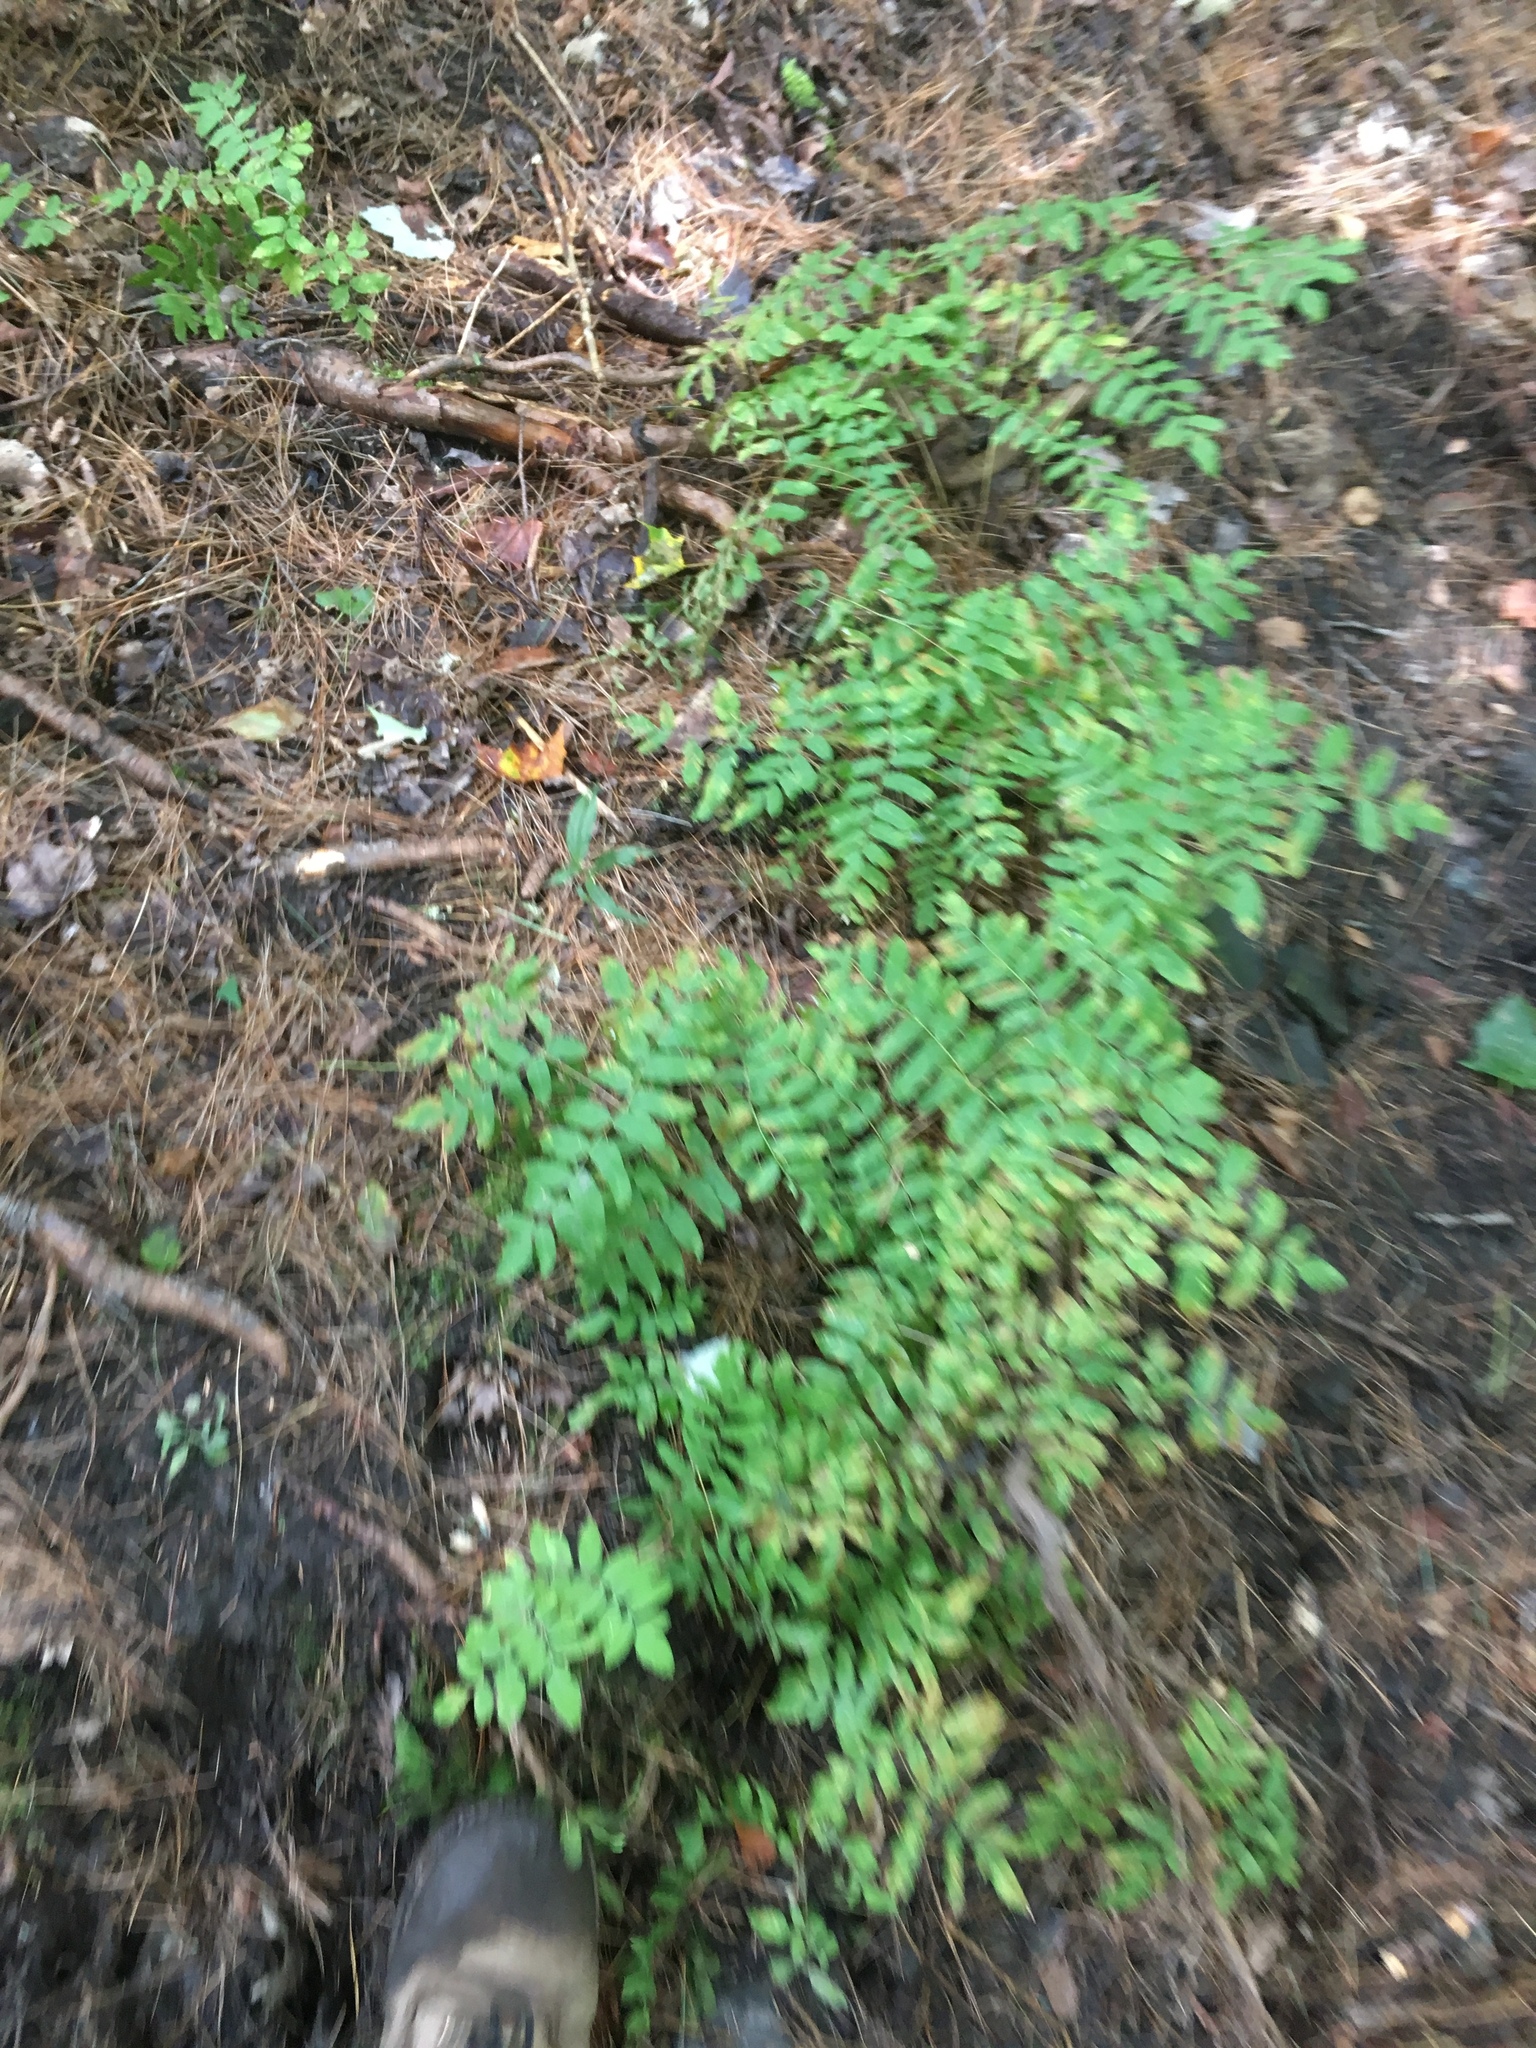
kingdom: Plantae
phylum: Tracheophyta
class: Polypodiopsida
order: Osmundales
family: Osmundaceae
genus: Osmunda
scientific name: Osmunda spectabilis
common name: American royal fern
